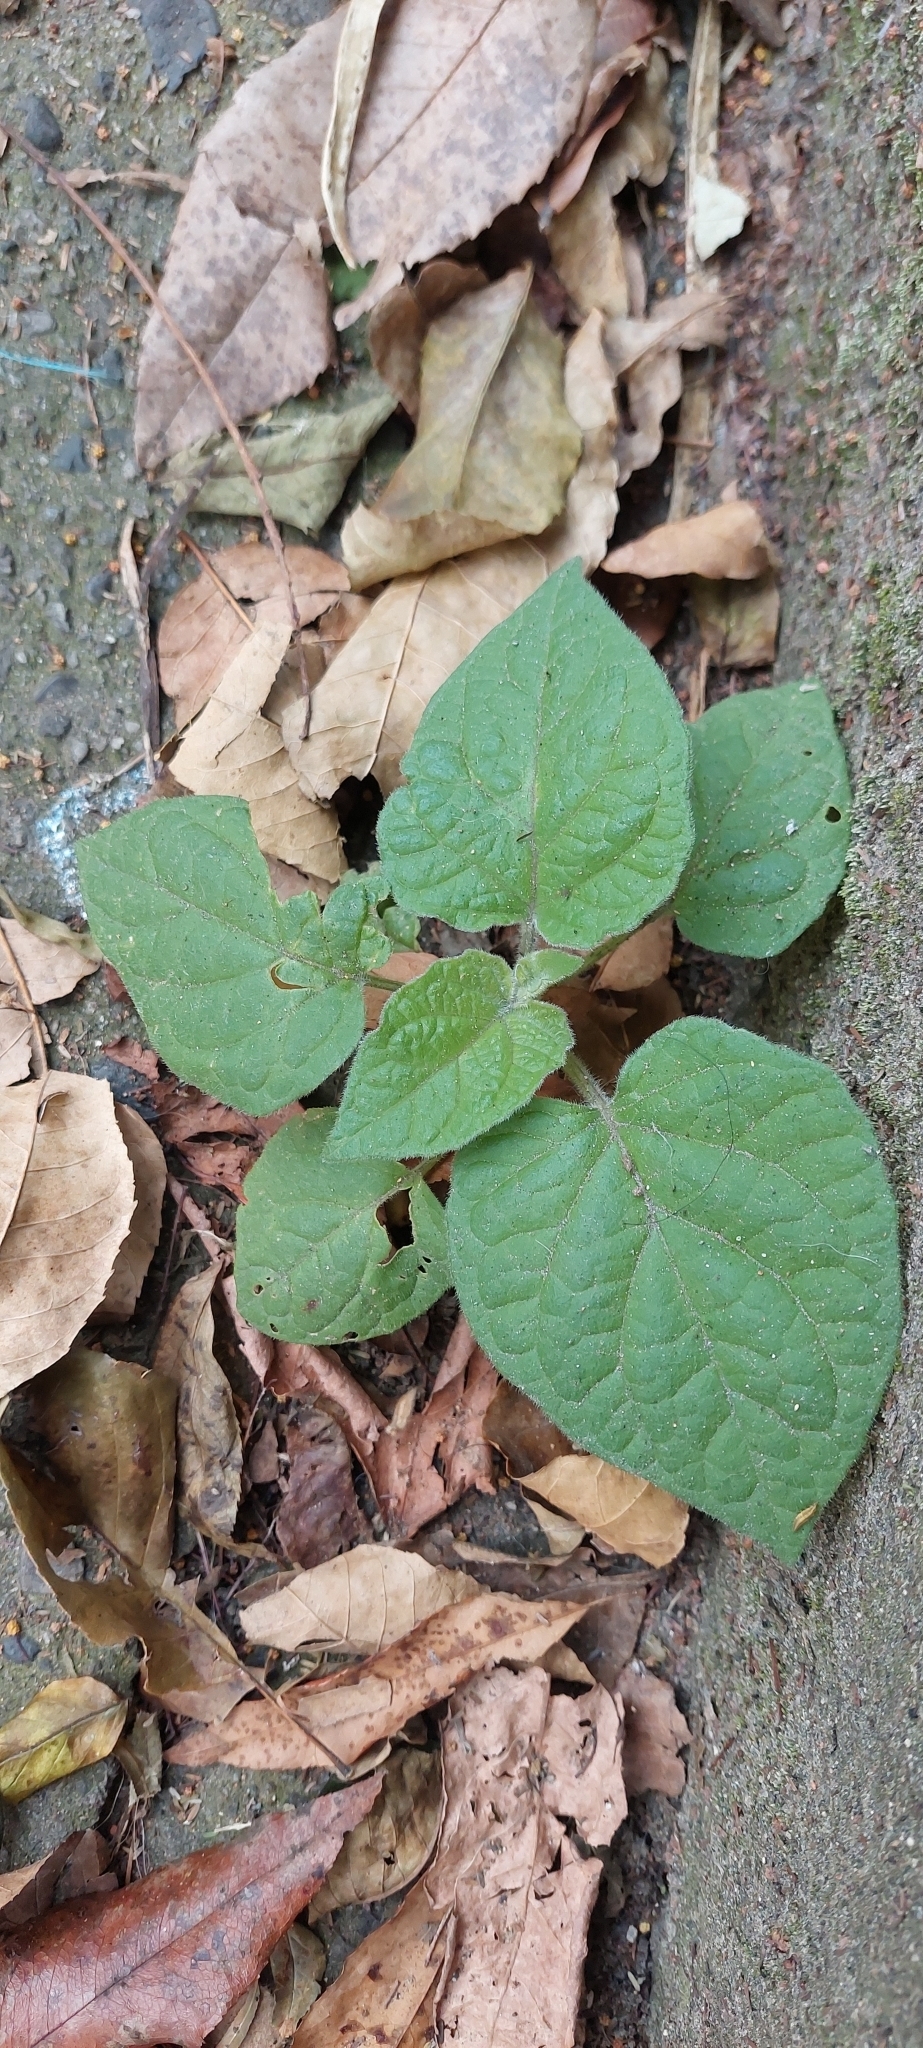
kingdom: Plantae
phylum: Tracheophyta
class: Magnoliopsida
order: Solanales
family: Solanaceae
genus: Physalis
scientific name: Physalis peruviana
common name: Cape-gooseberry
